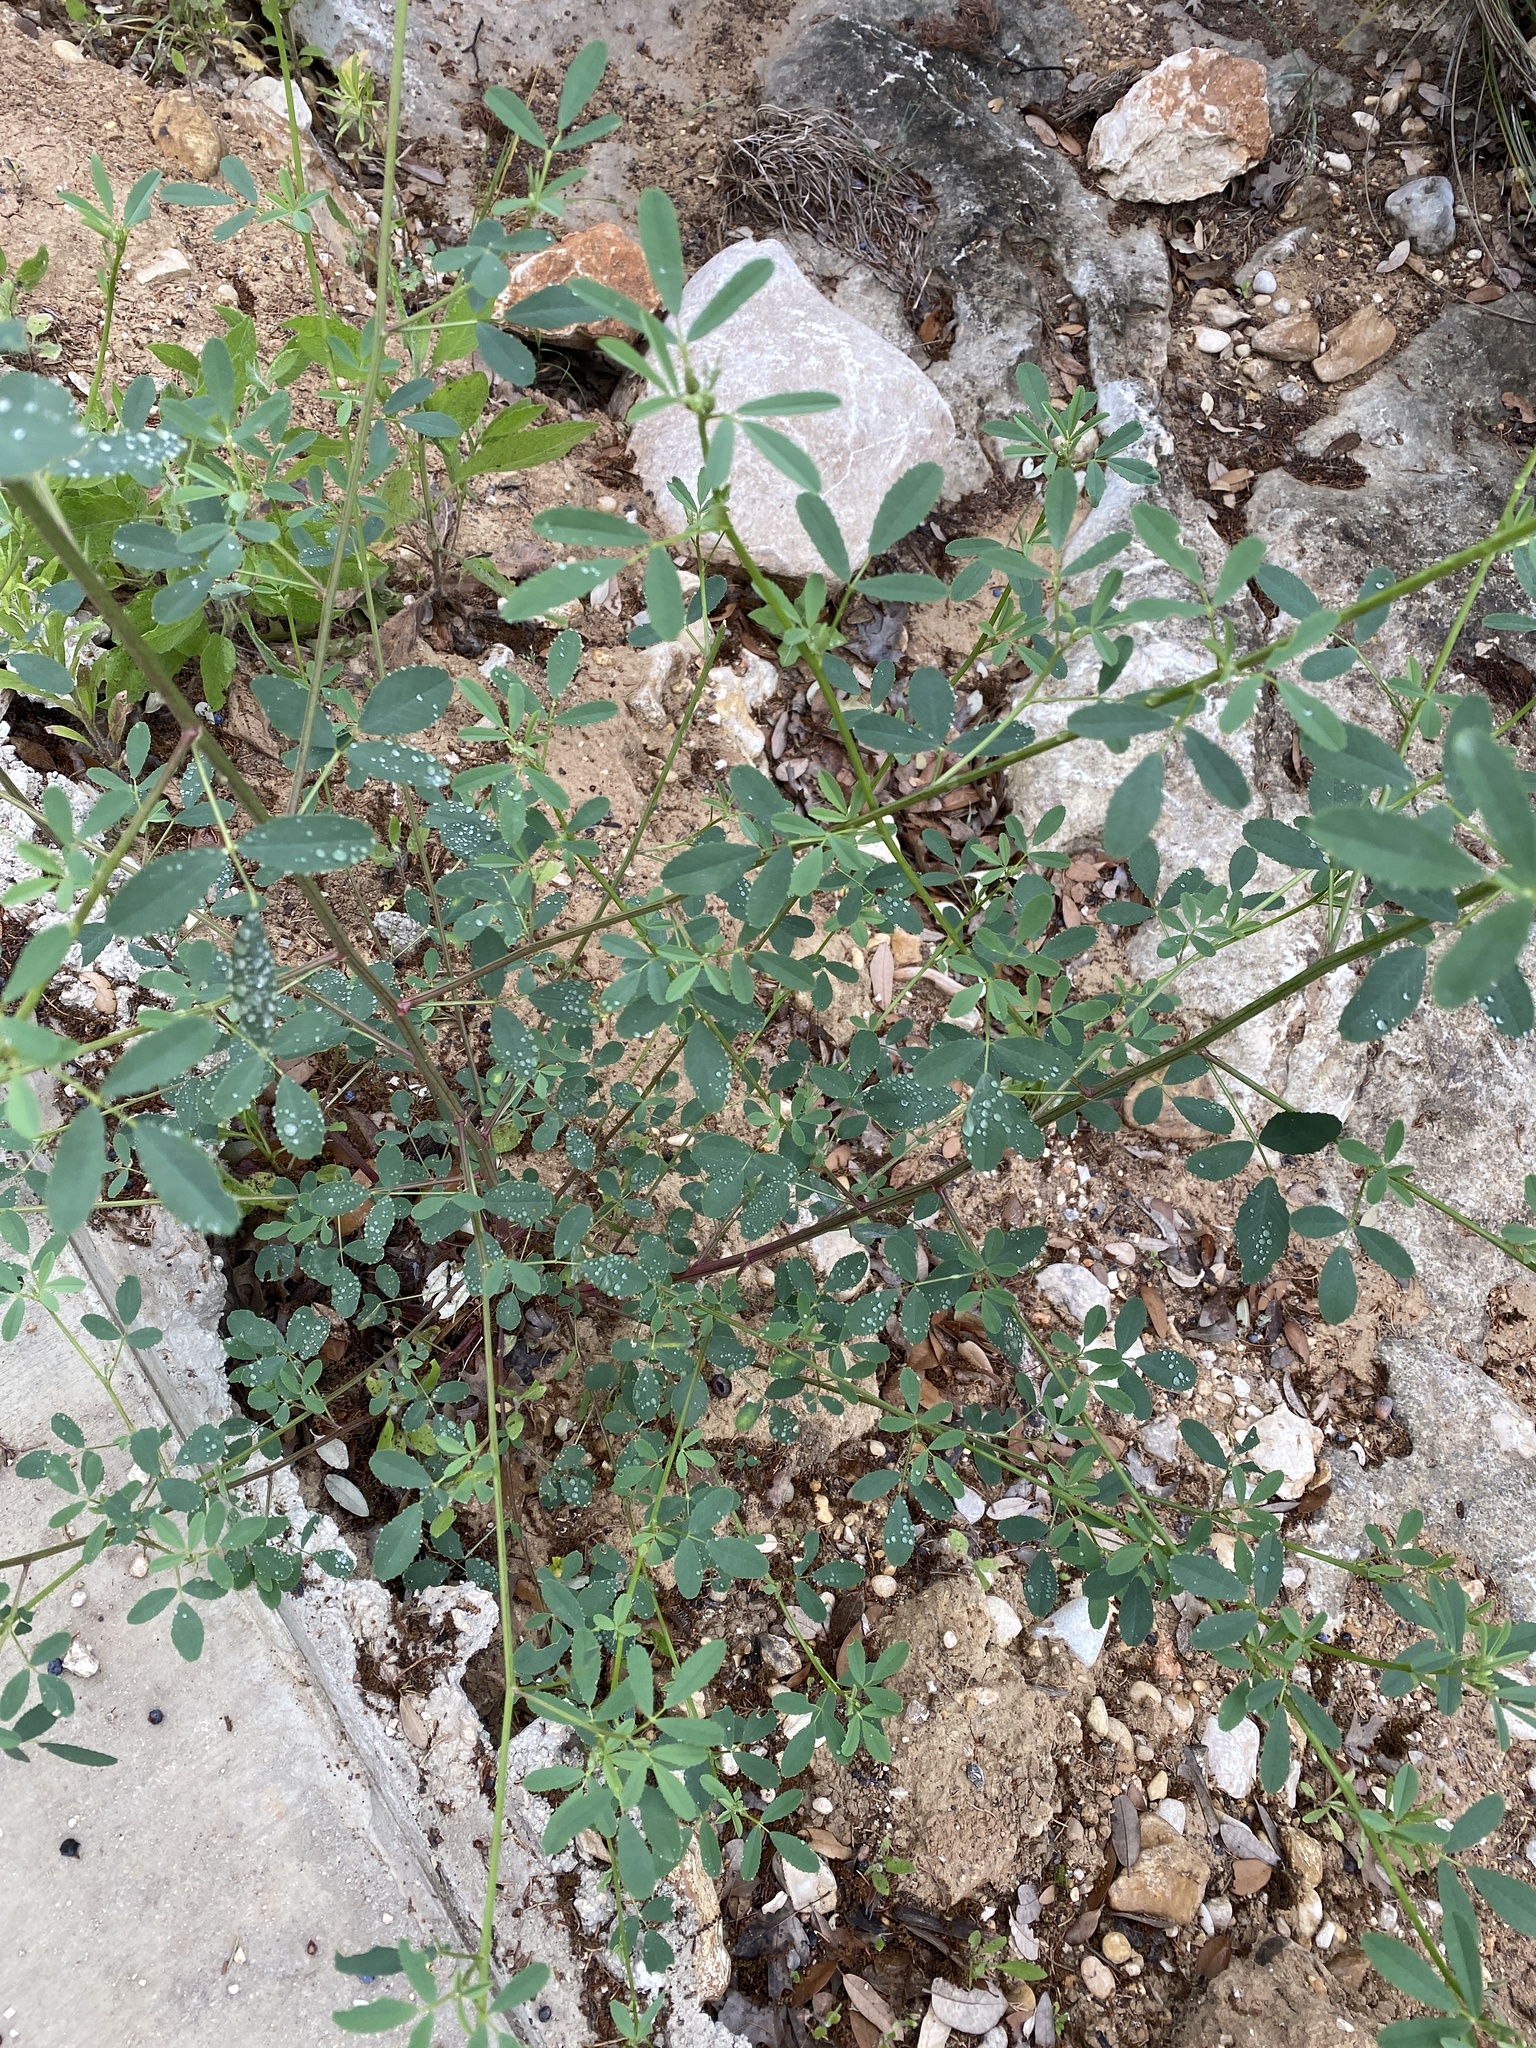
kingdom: Plantae
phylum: Tracheophyta
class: Magnoliopsida
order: Fabales
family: Fabaceae
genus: Melilotus
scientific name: Melilotus albus
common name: White melilot
